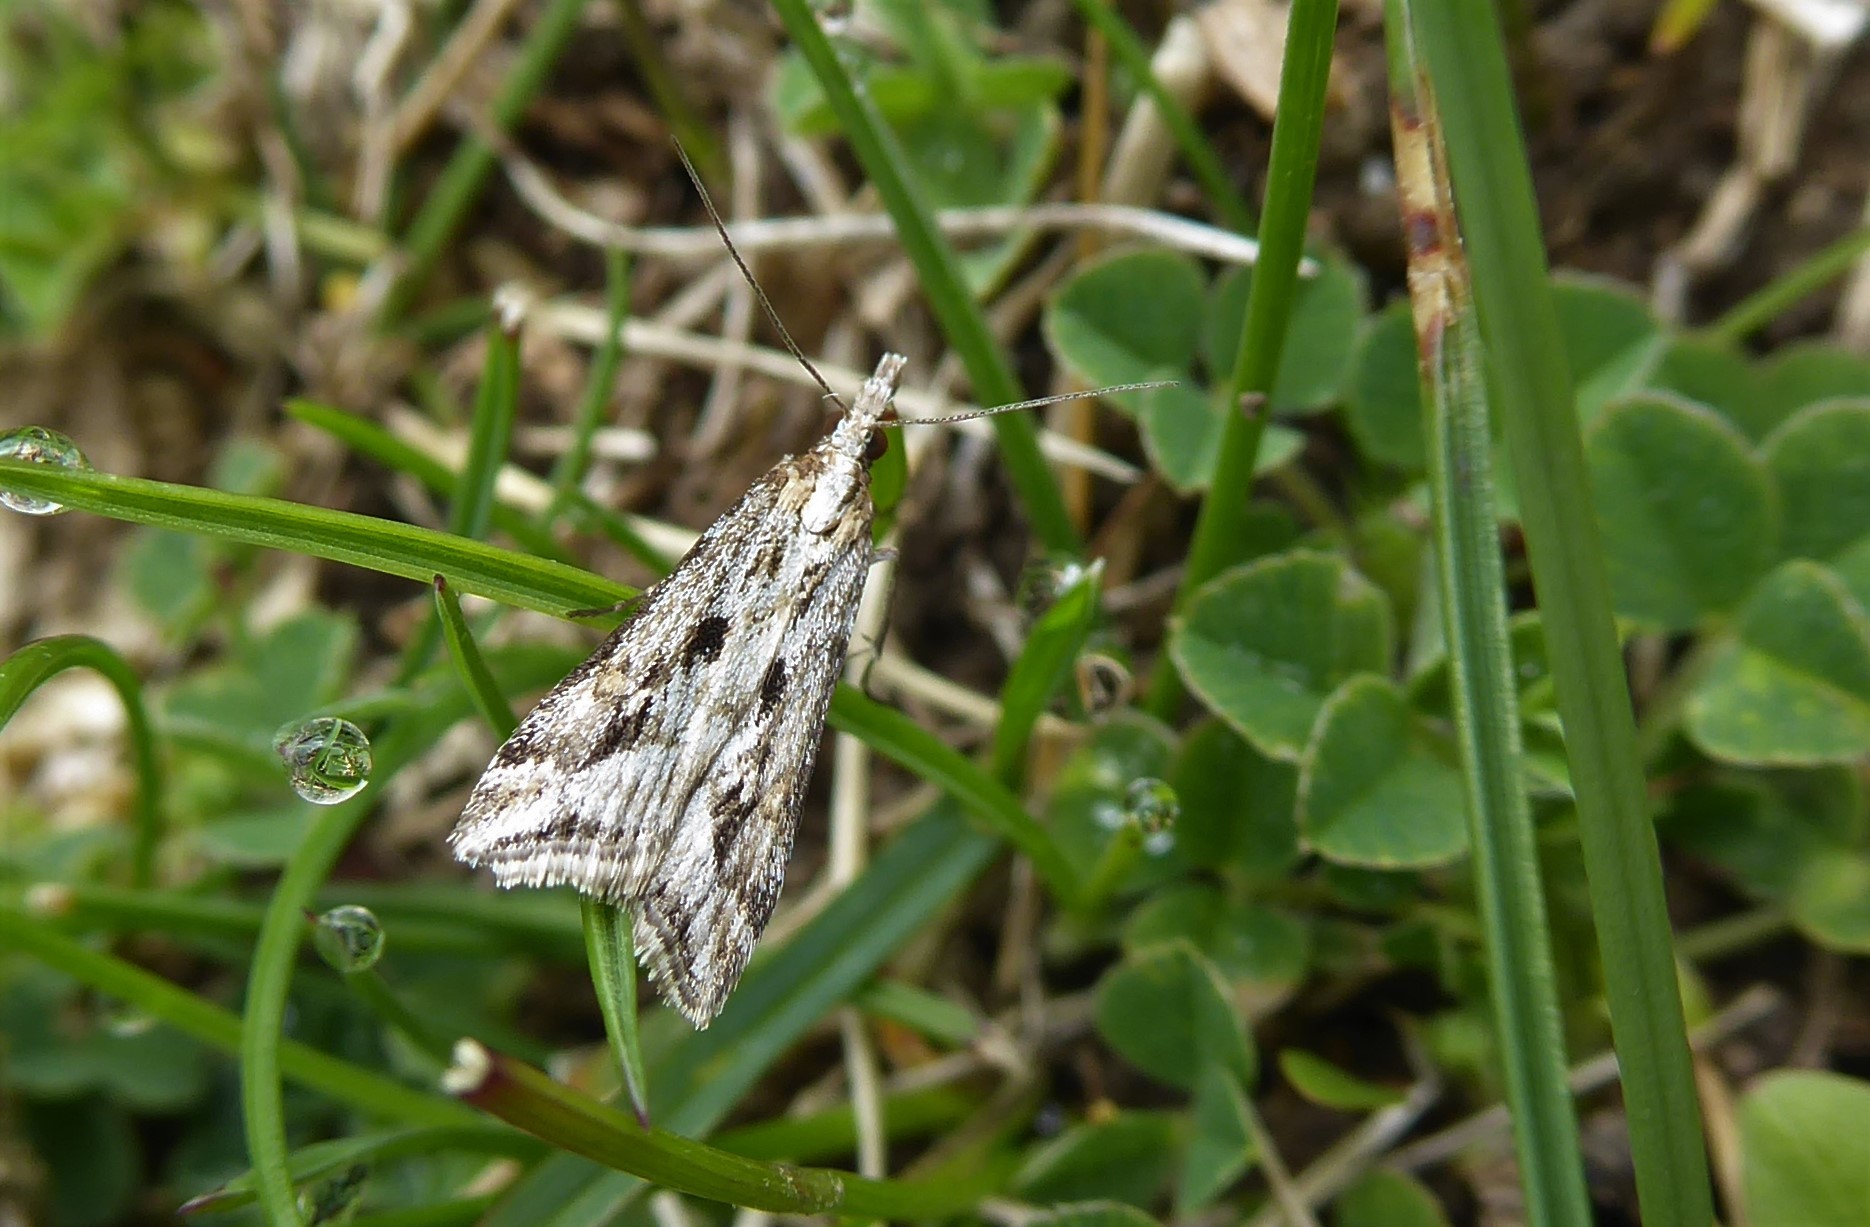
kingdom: Animalia
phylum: Arthropoda
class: Insecta
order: Lepidoptera
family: Crambidae
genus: Scoparia
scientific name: Scoparia exilis
